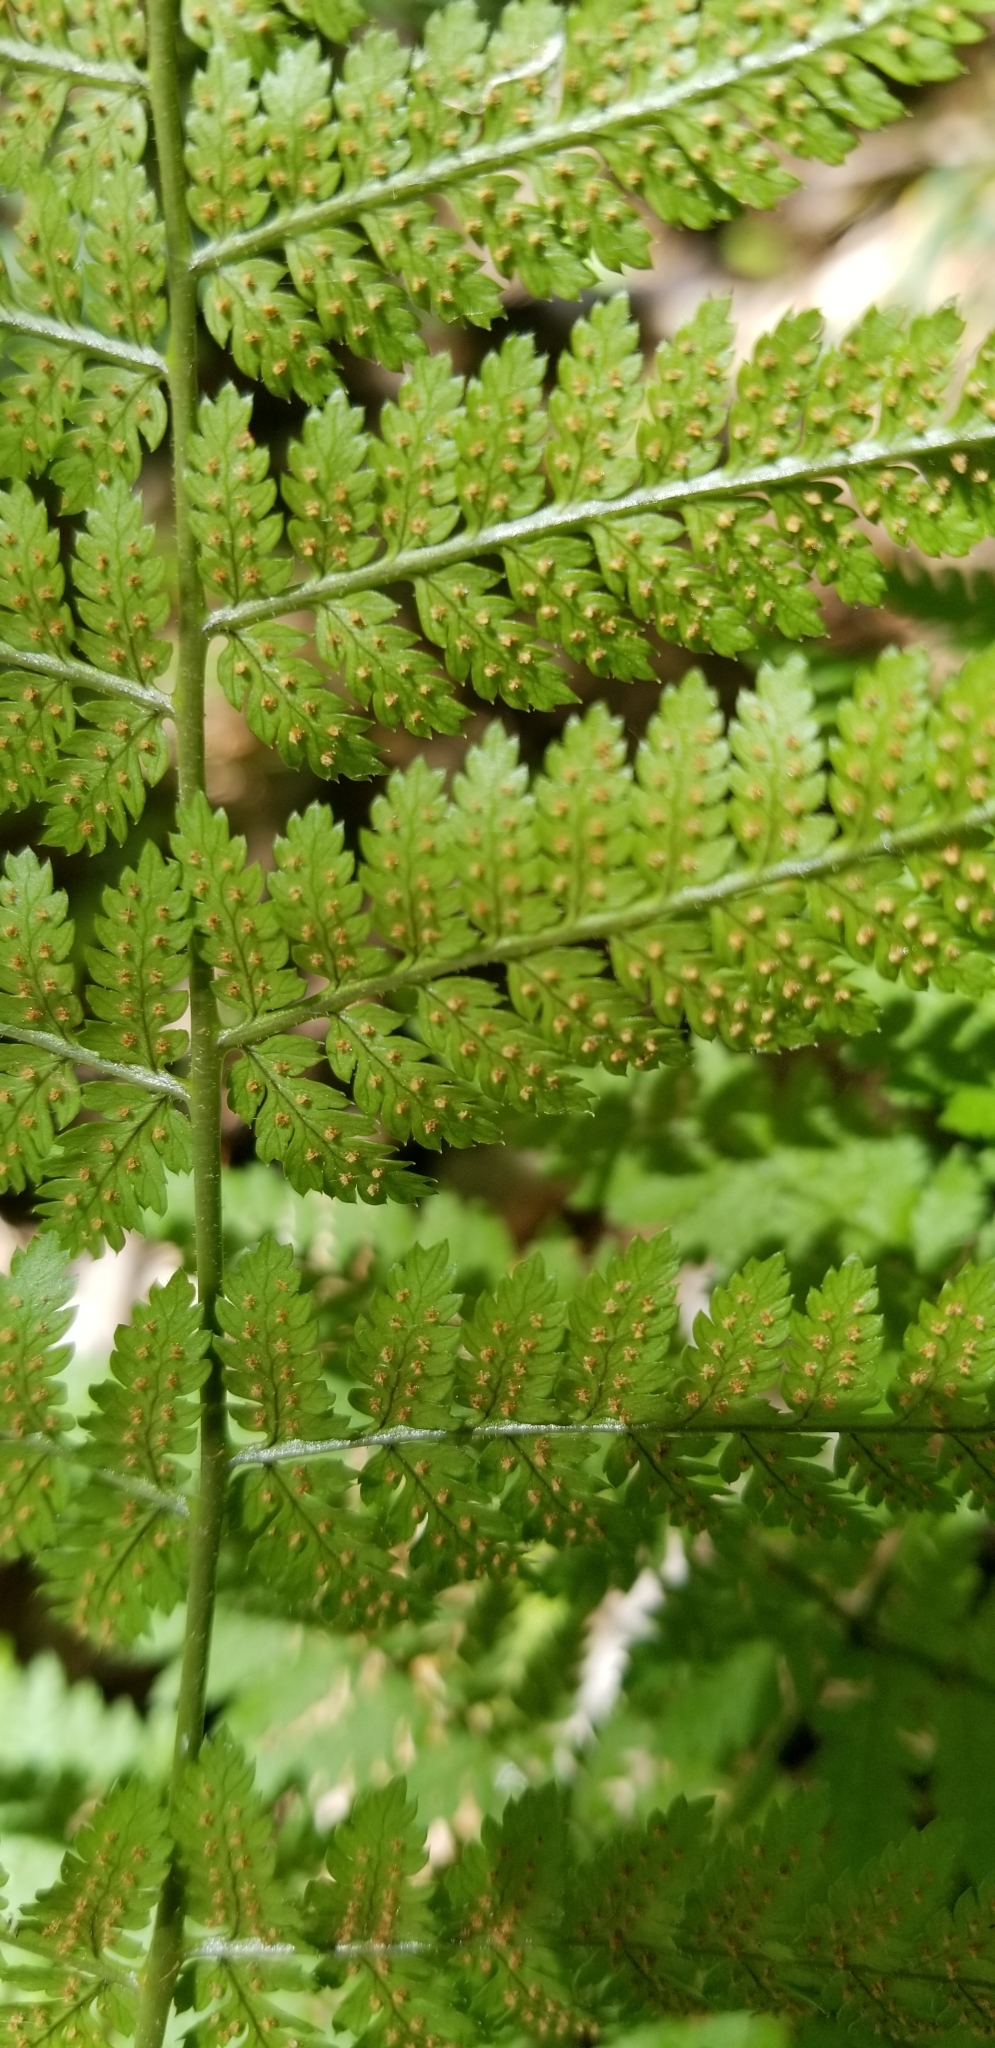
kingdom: Plantae
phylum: Tracheophyta
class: Polypodiopsida
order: Polypodiales
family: Dryopteridaceae
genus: Dryopteris
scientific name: Dryopteris intermedia
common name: Evergreen wood fern
